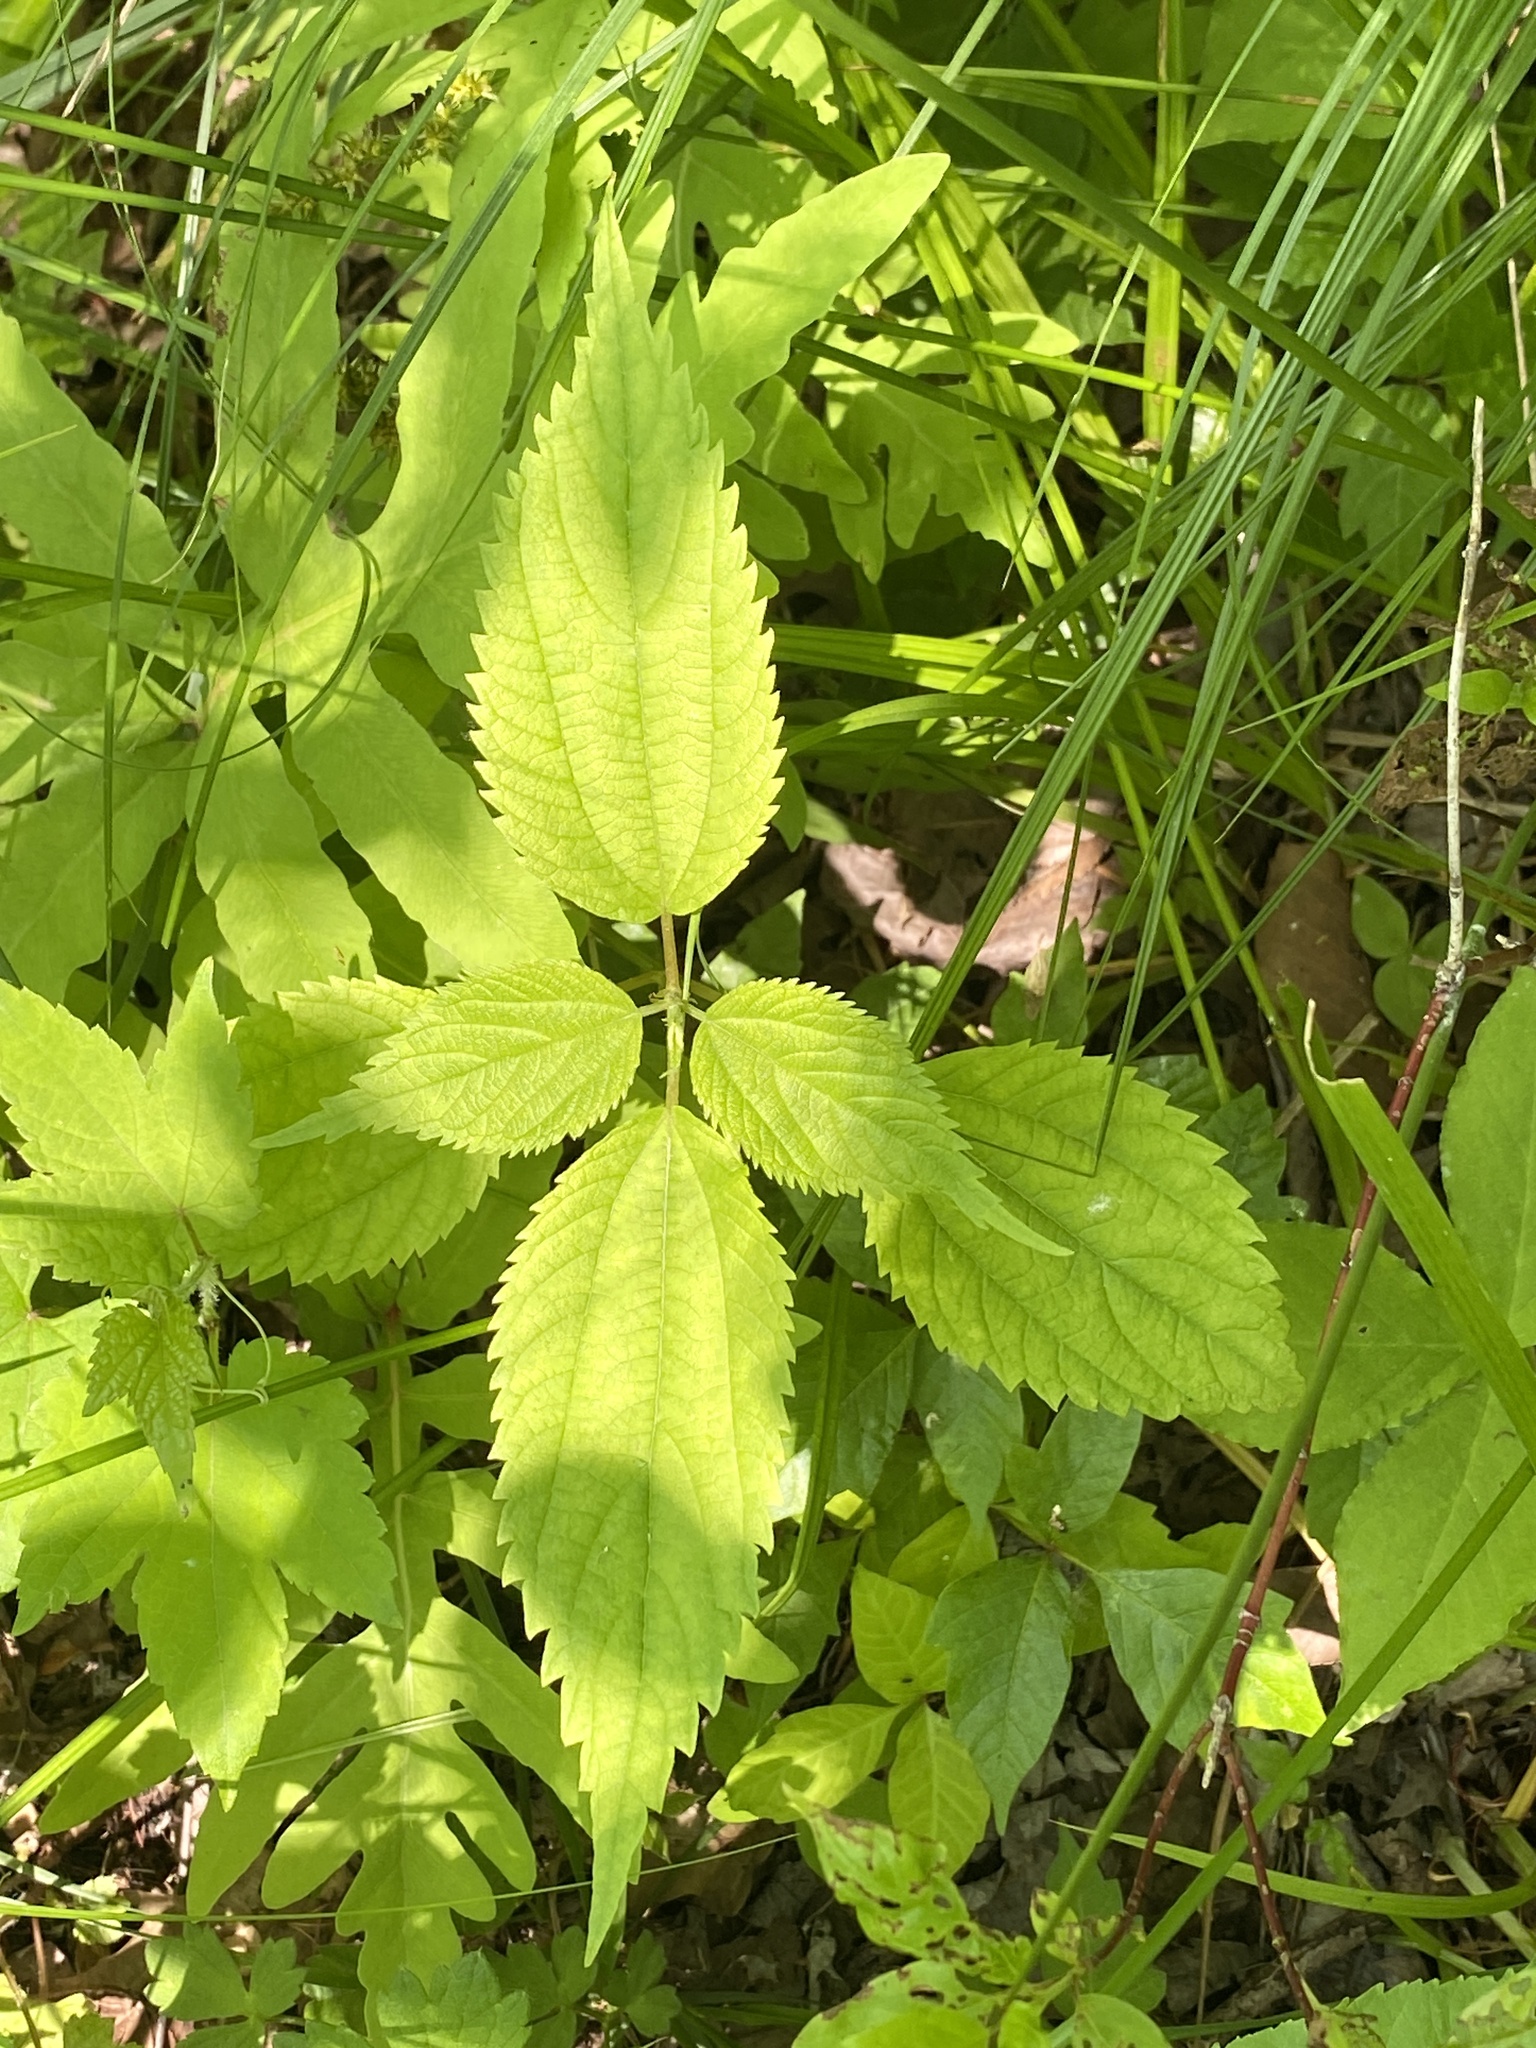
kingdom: Plantae
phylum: Tracheophyta
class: Magnoliopsida
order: Rosales
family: Urticaceae
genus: Boehmeria
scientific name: Boehmeria cylindrica
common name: Bog-hemp
